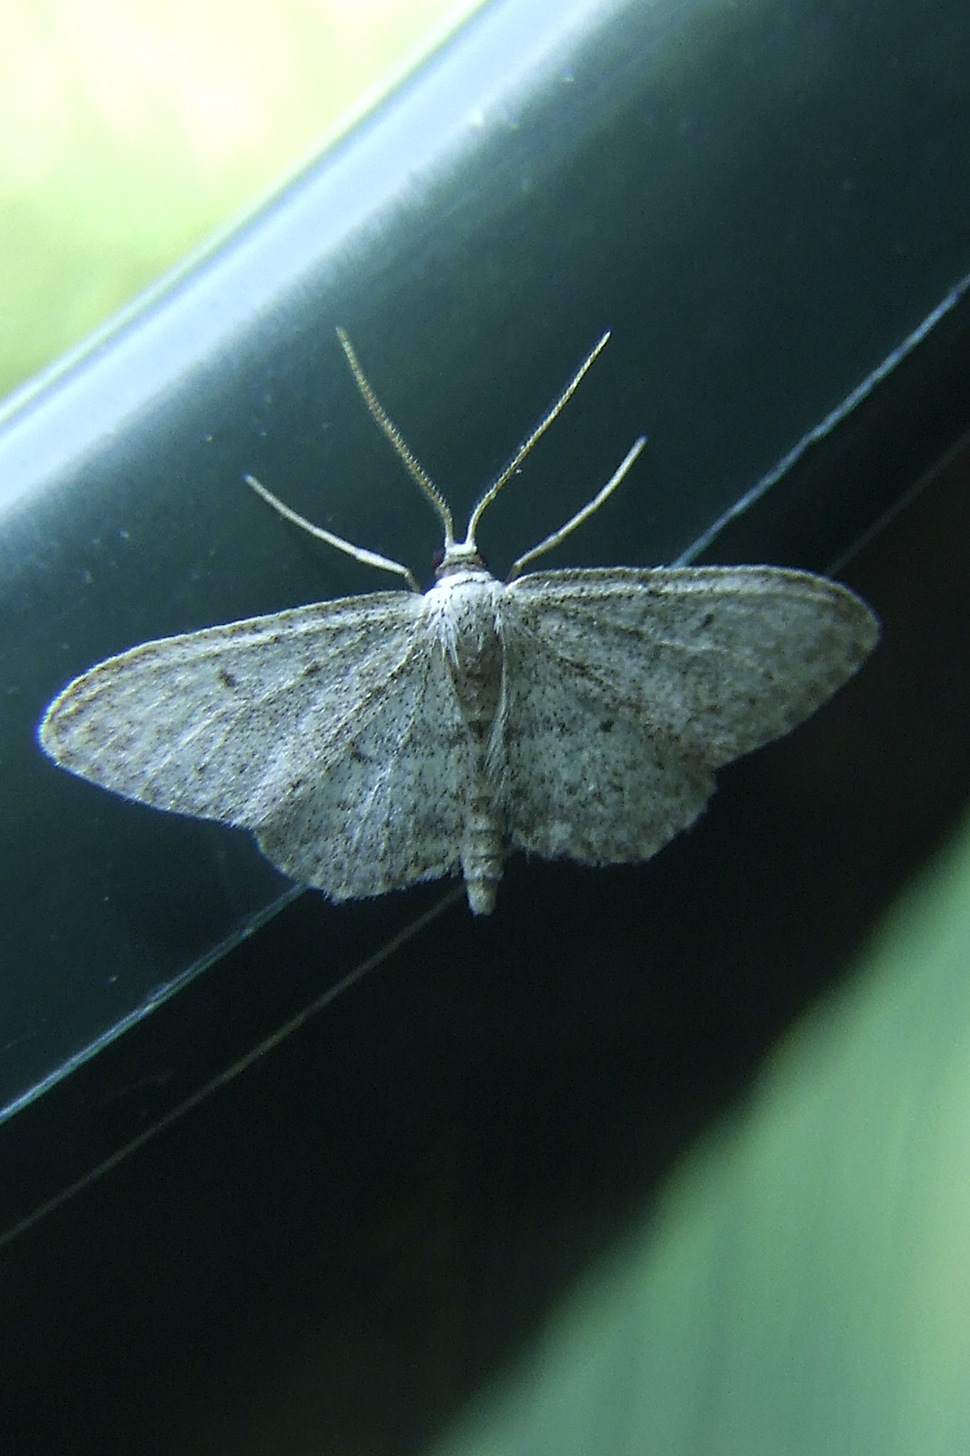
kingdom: Animalia
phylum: Arthropoda
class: Insecta
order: Lepidoptera
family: Geometridae
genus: Idaea
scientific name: Idaea seriata
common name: Small dusty wave
